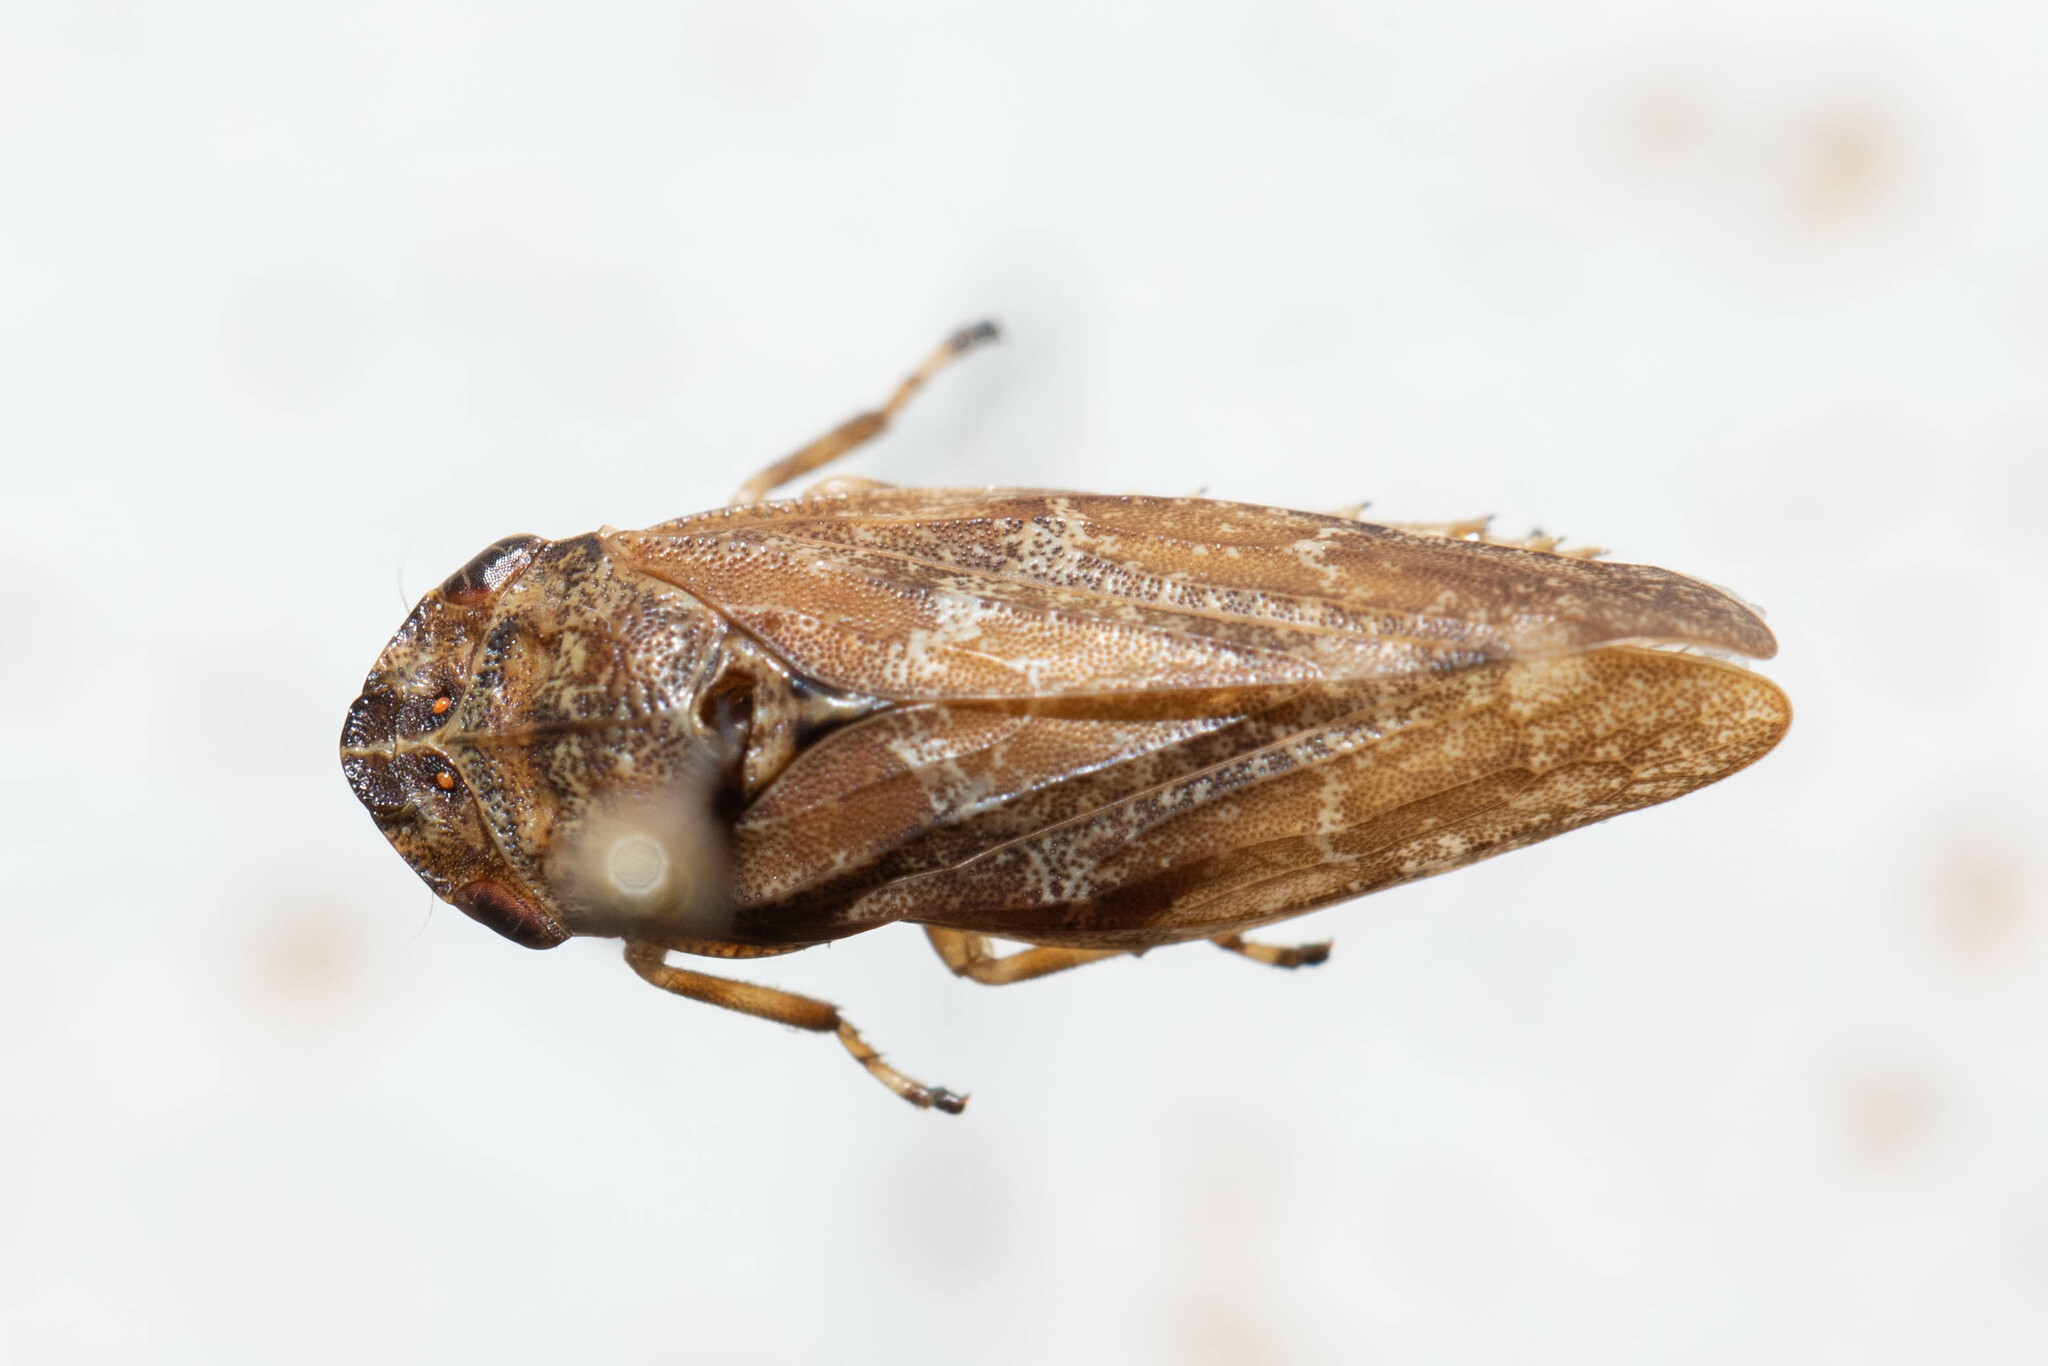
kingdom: Animalia
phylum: Arthropoda
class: Insecta
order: Hemiptera
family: Aphrophoridae
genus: Philaenus
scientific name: Philaenus spumarius
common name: Meadow spittlebug
